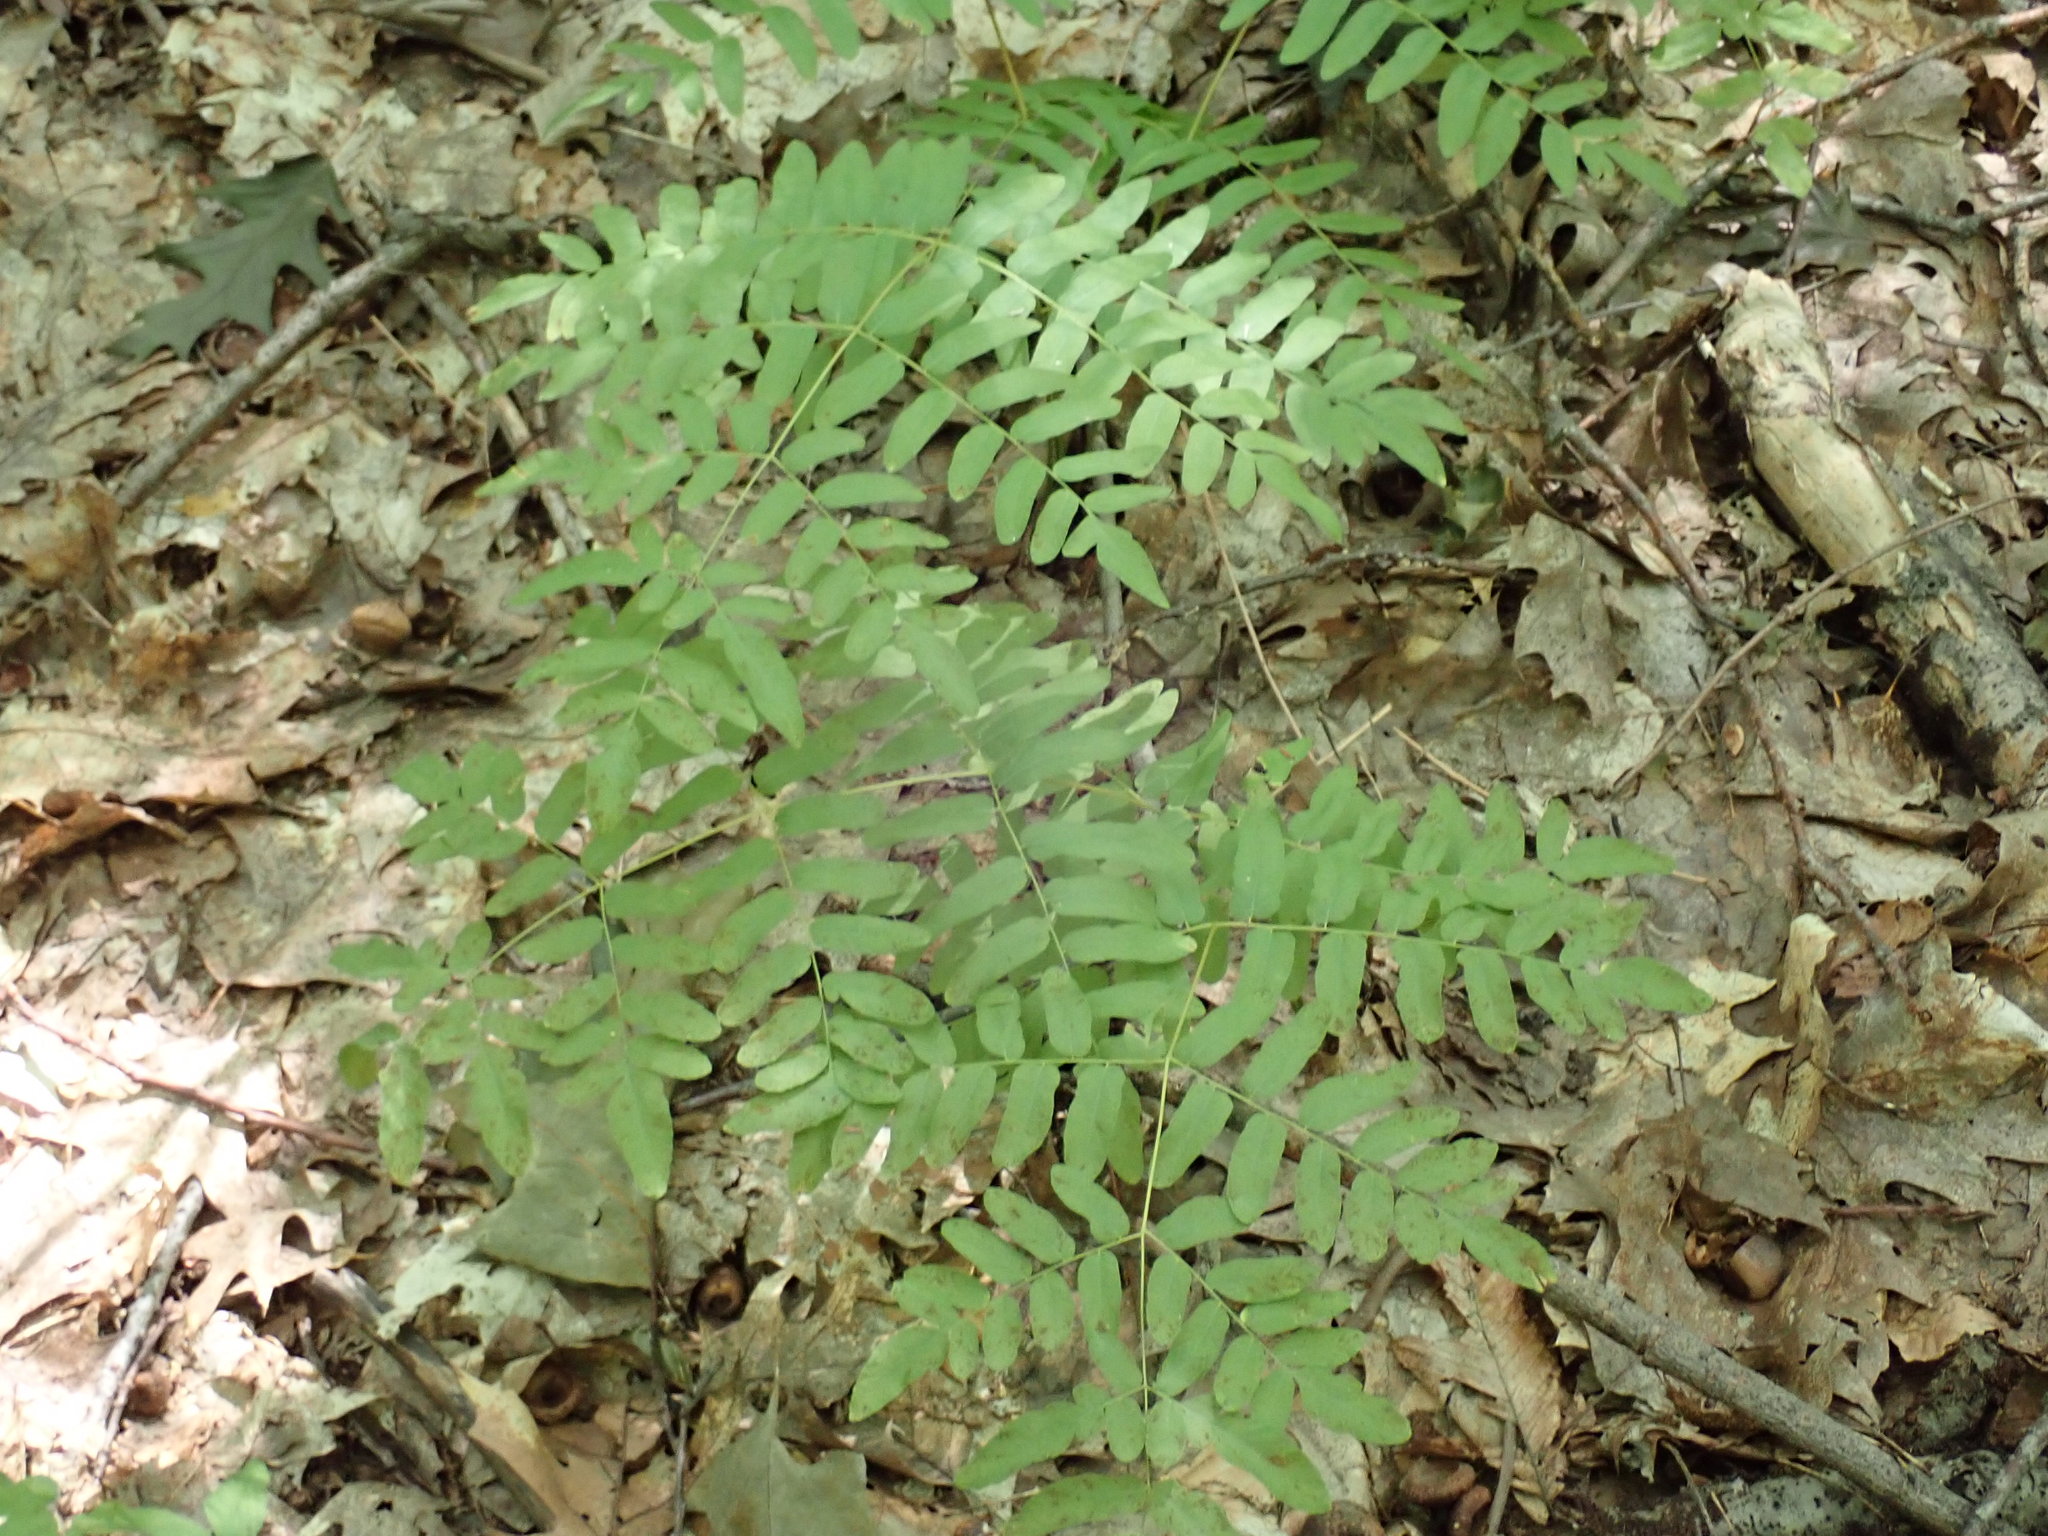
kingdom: Plantae
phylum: Tracheophyta
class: Polypodiopsida
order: Osmundales
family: Osmundaceae
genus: Osmunda
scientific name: Osmunda spectabilis
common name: American royal fern
